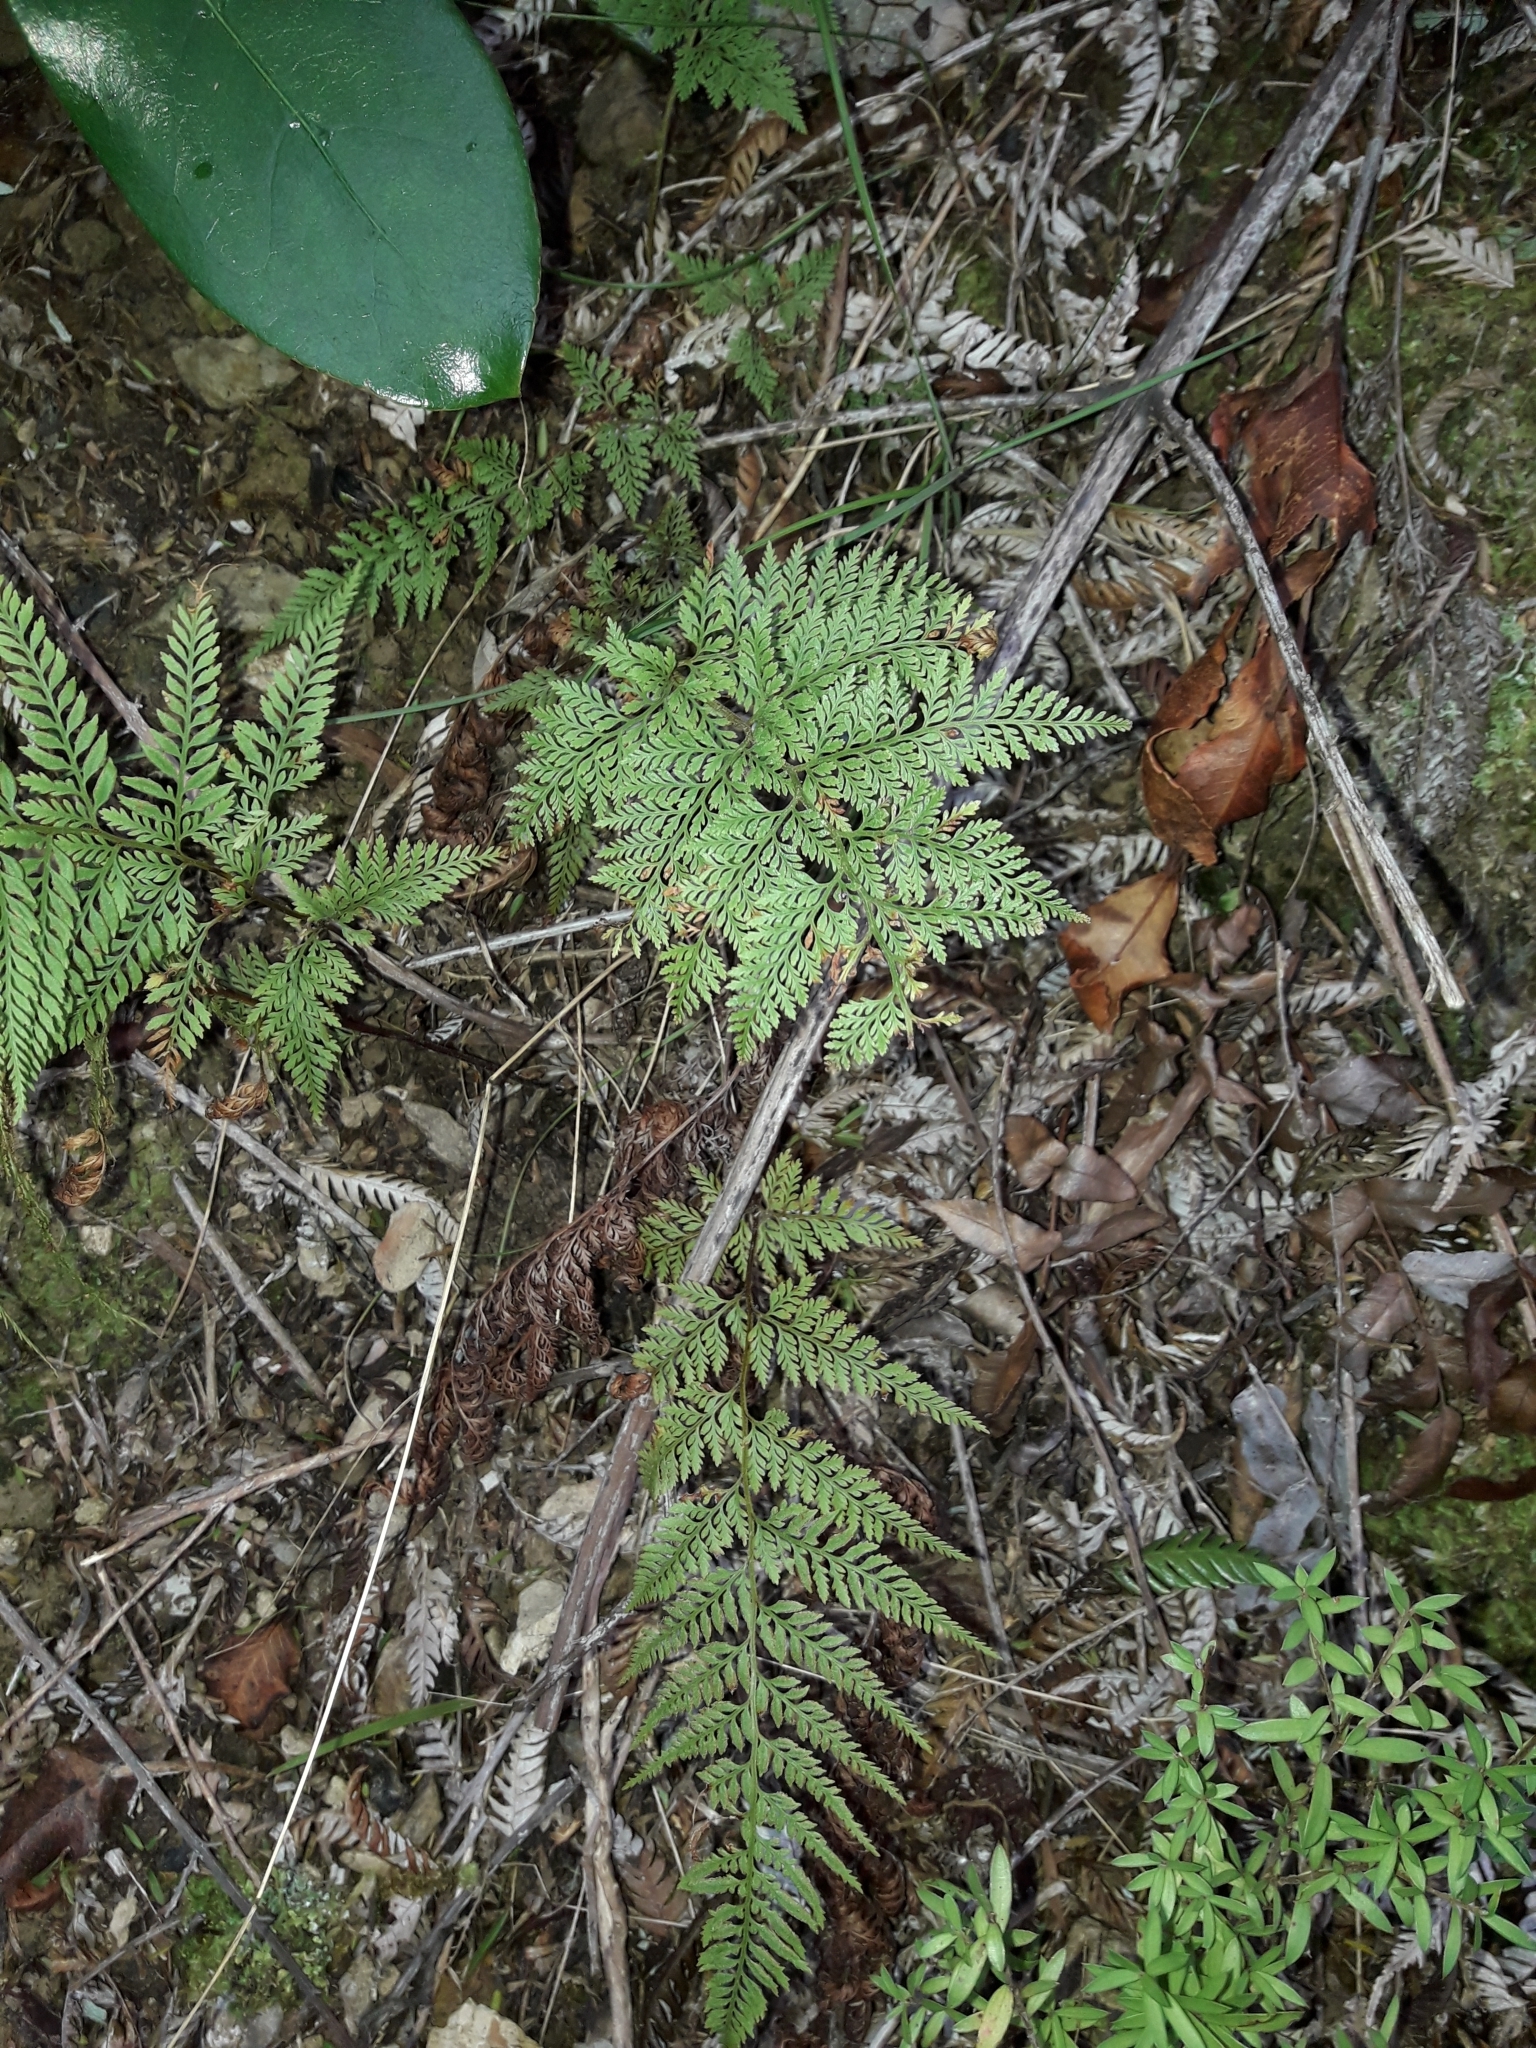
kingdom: Plantae
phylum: Tracheophyta
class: Polypodiopsida
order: Polypodiales
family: Dennstaedtiaceae
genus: Paesia
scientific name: Paesia scaberula
